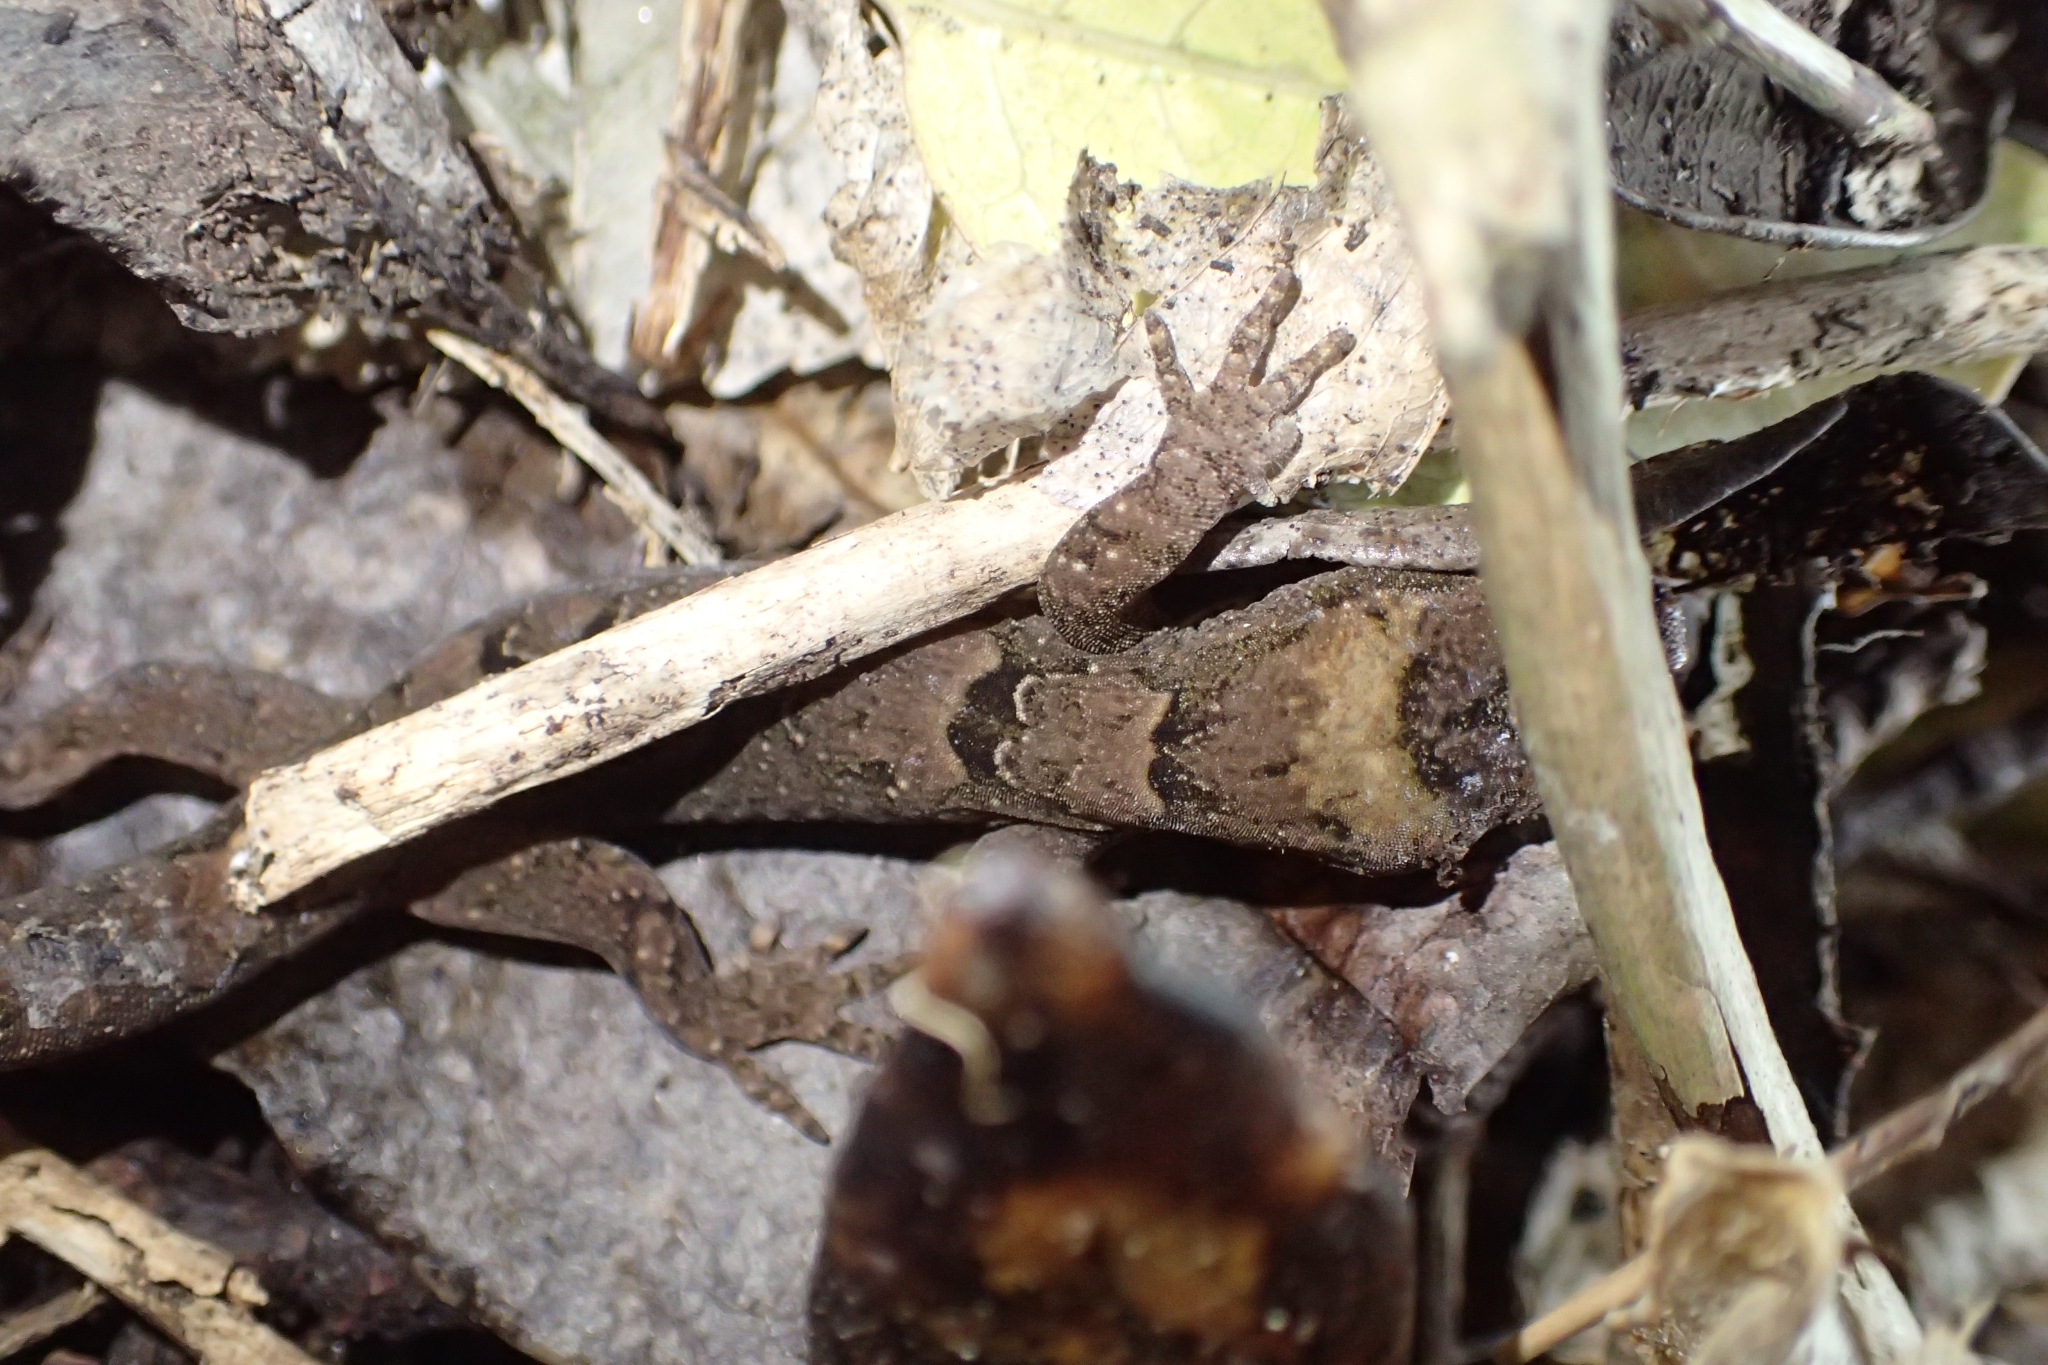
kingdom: Animalia
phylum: Chordata
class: Squamata
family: Diplodactylidae
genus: Dactylocnemis
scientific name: Dactylocnemis pacificus
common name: Pacific gecko
